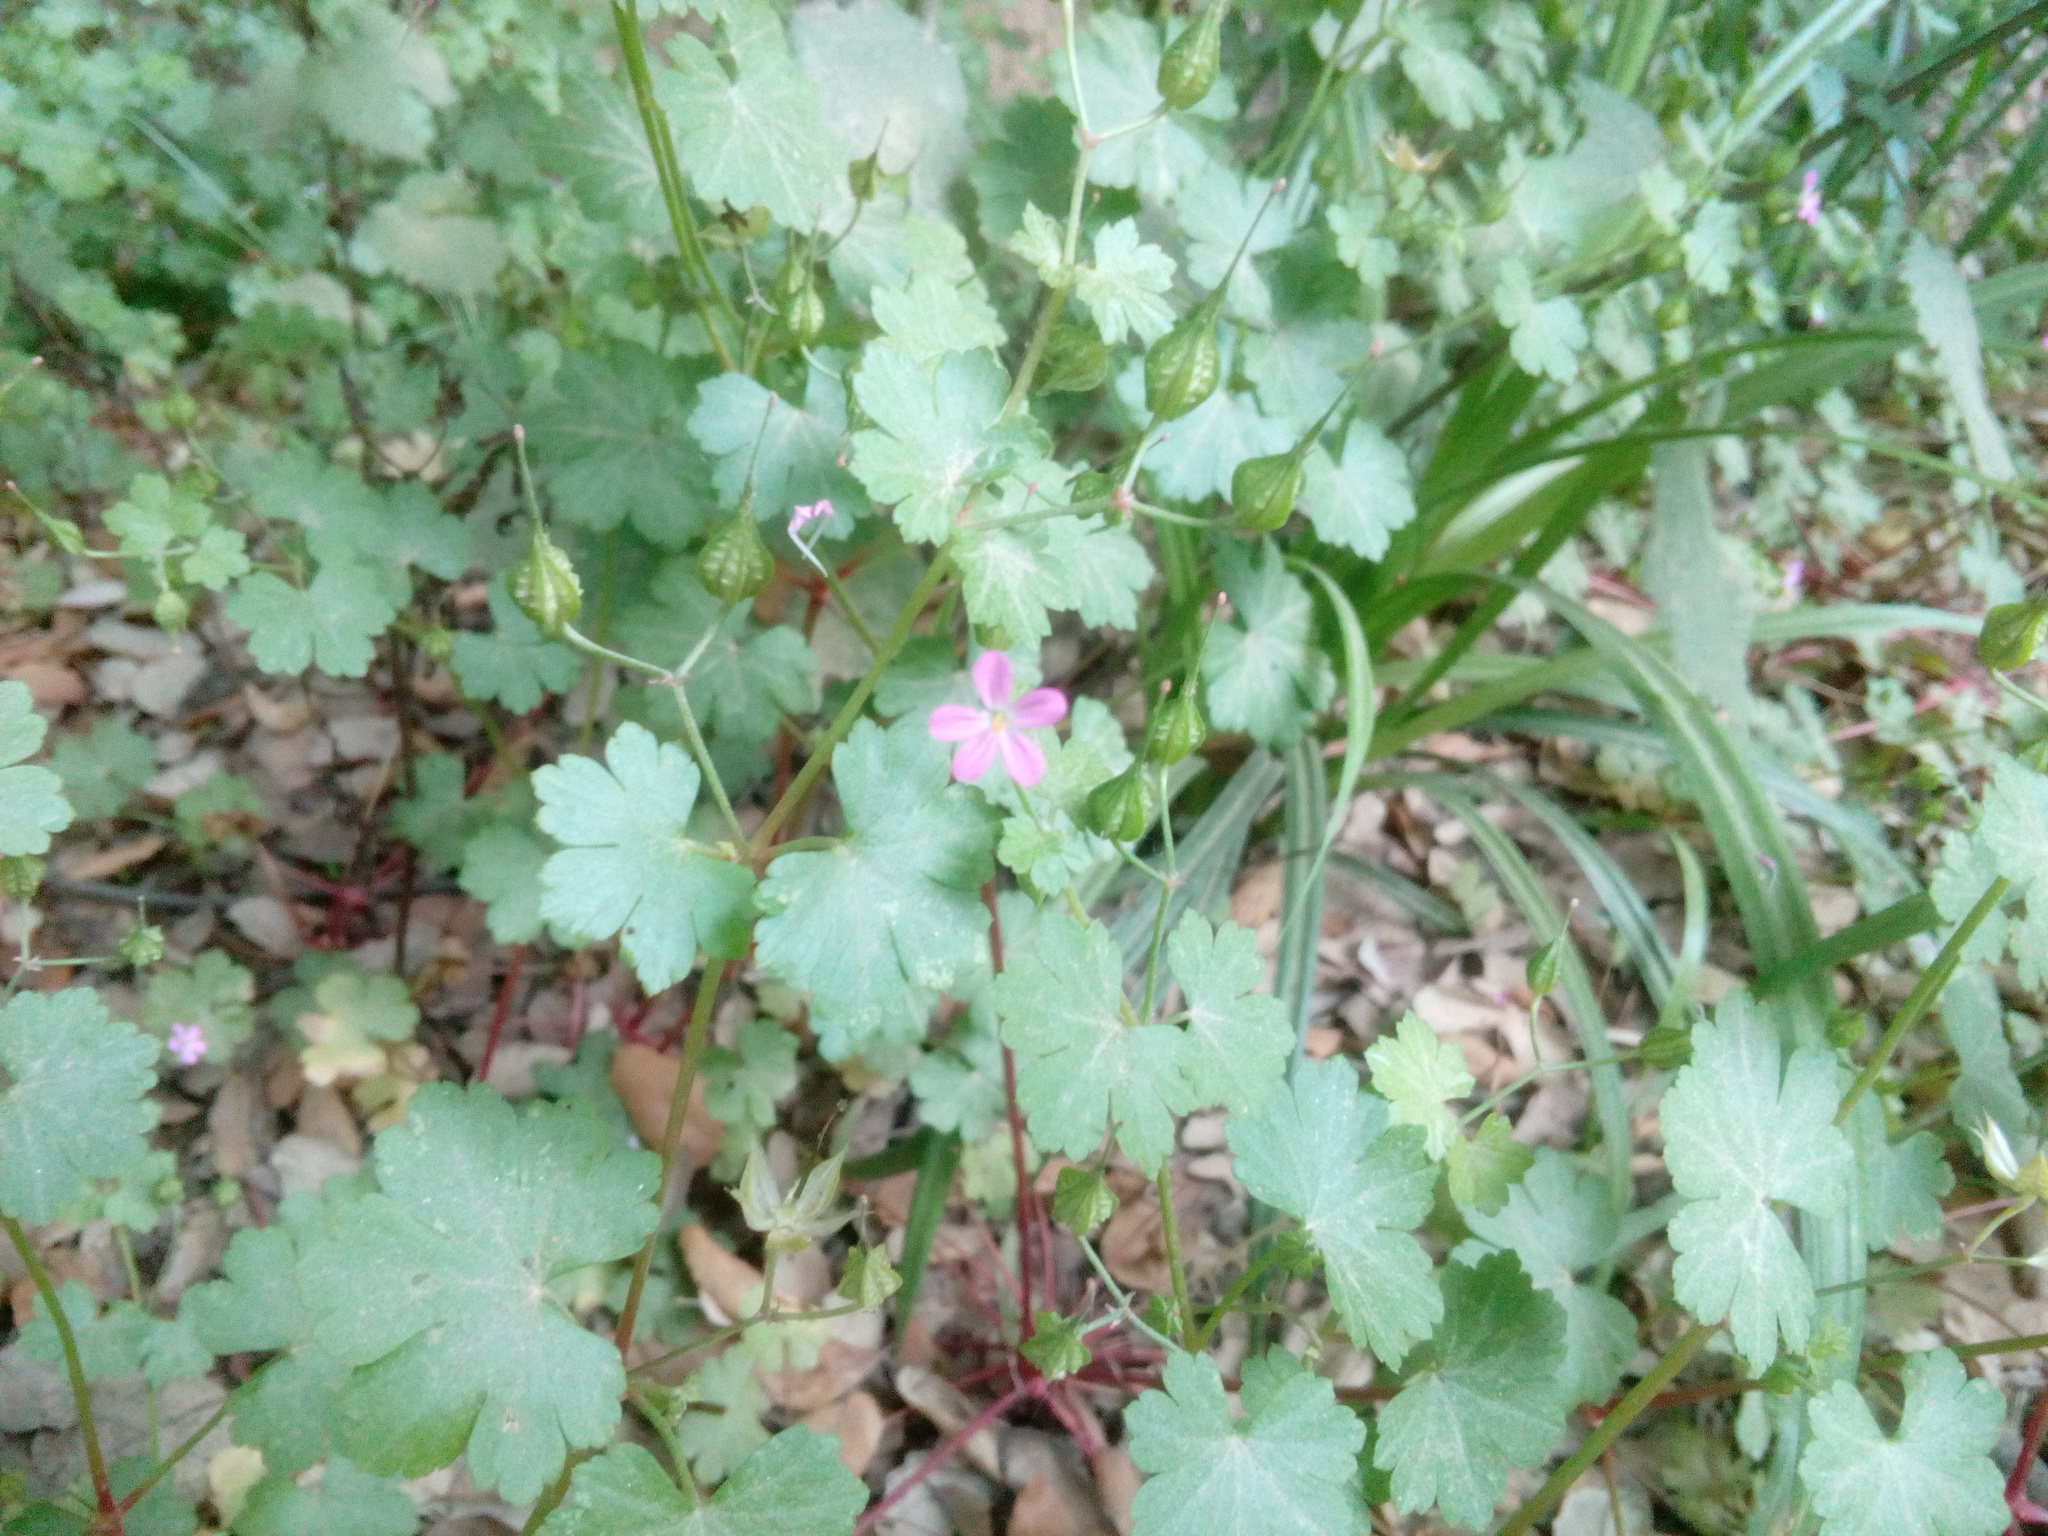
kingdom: Plantae
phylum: Tracheophyta
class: Magnoliopsida
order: Geraniales
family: Geraniaceae
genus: Geranium
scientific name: Geranium lucidum
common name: Shining crane's-bill
